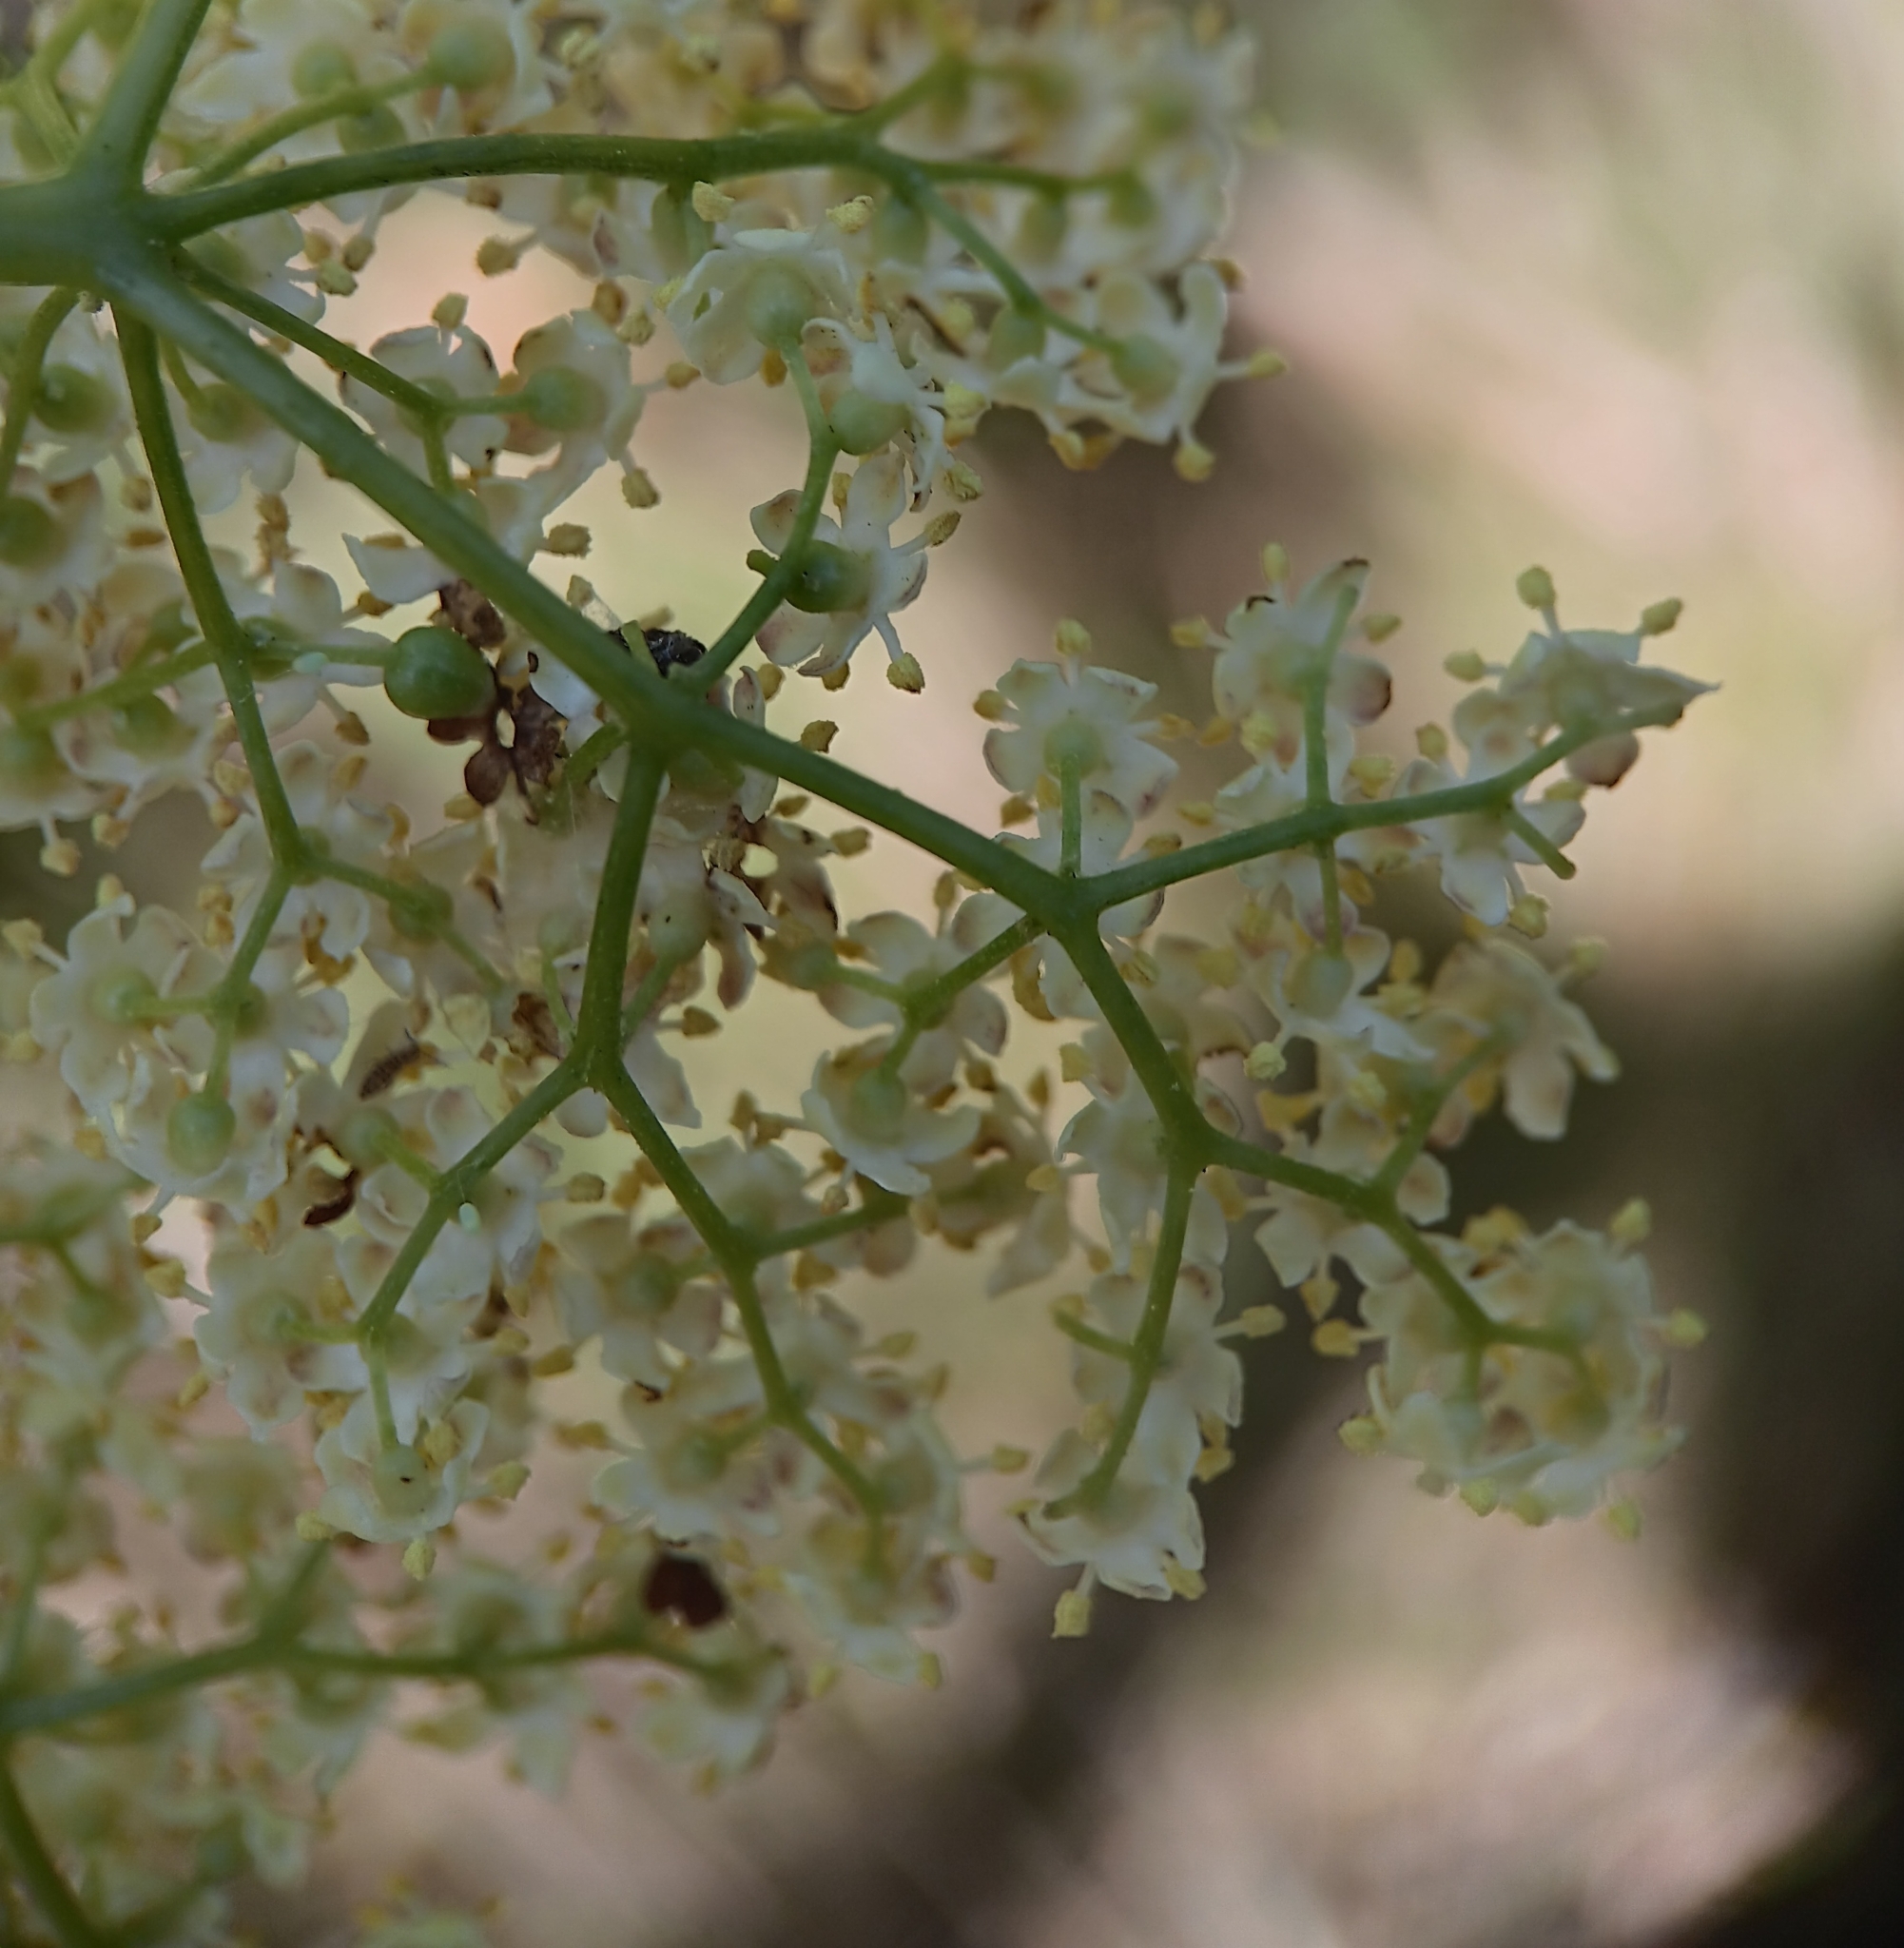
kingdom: Plantae
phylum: Tracheophyta
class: Magnoliopsida
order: Dipsacales
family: Viburnaceae
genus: Sambucus
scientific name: Sambucus cerulea
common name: Blue elder
